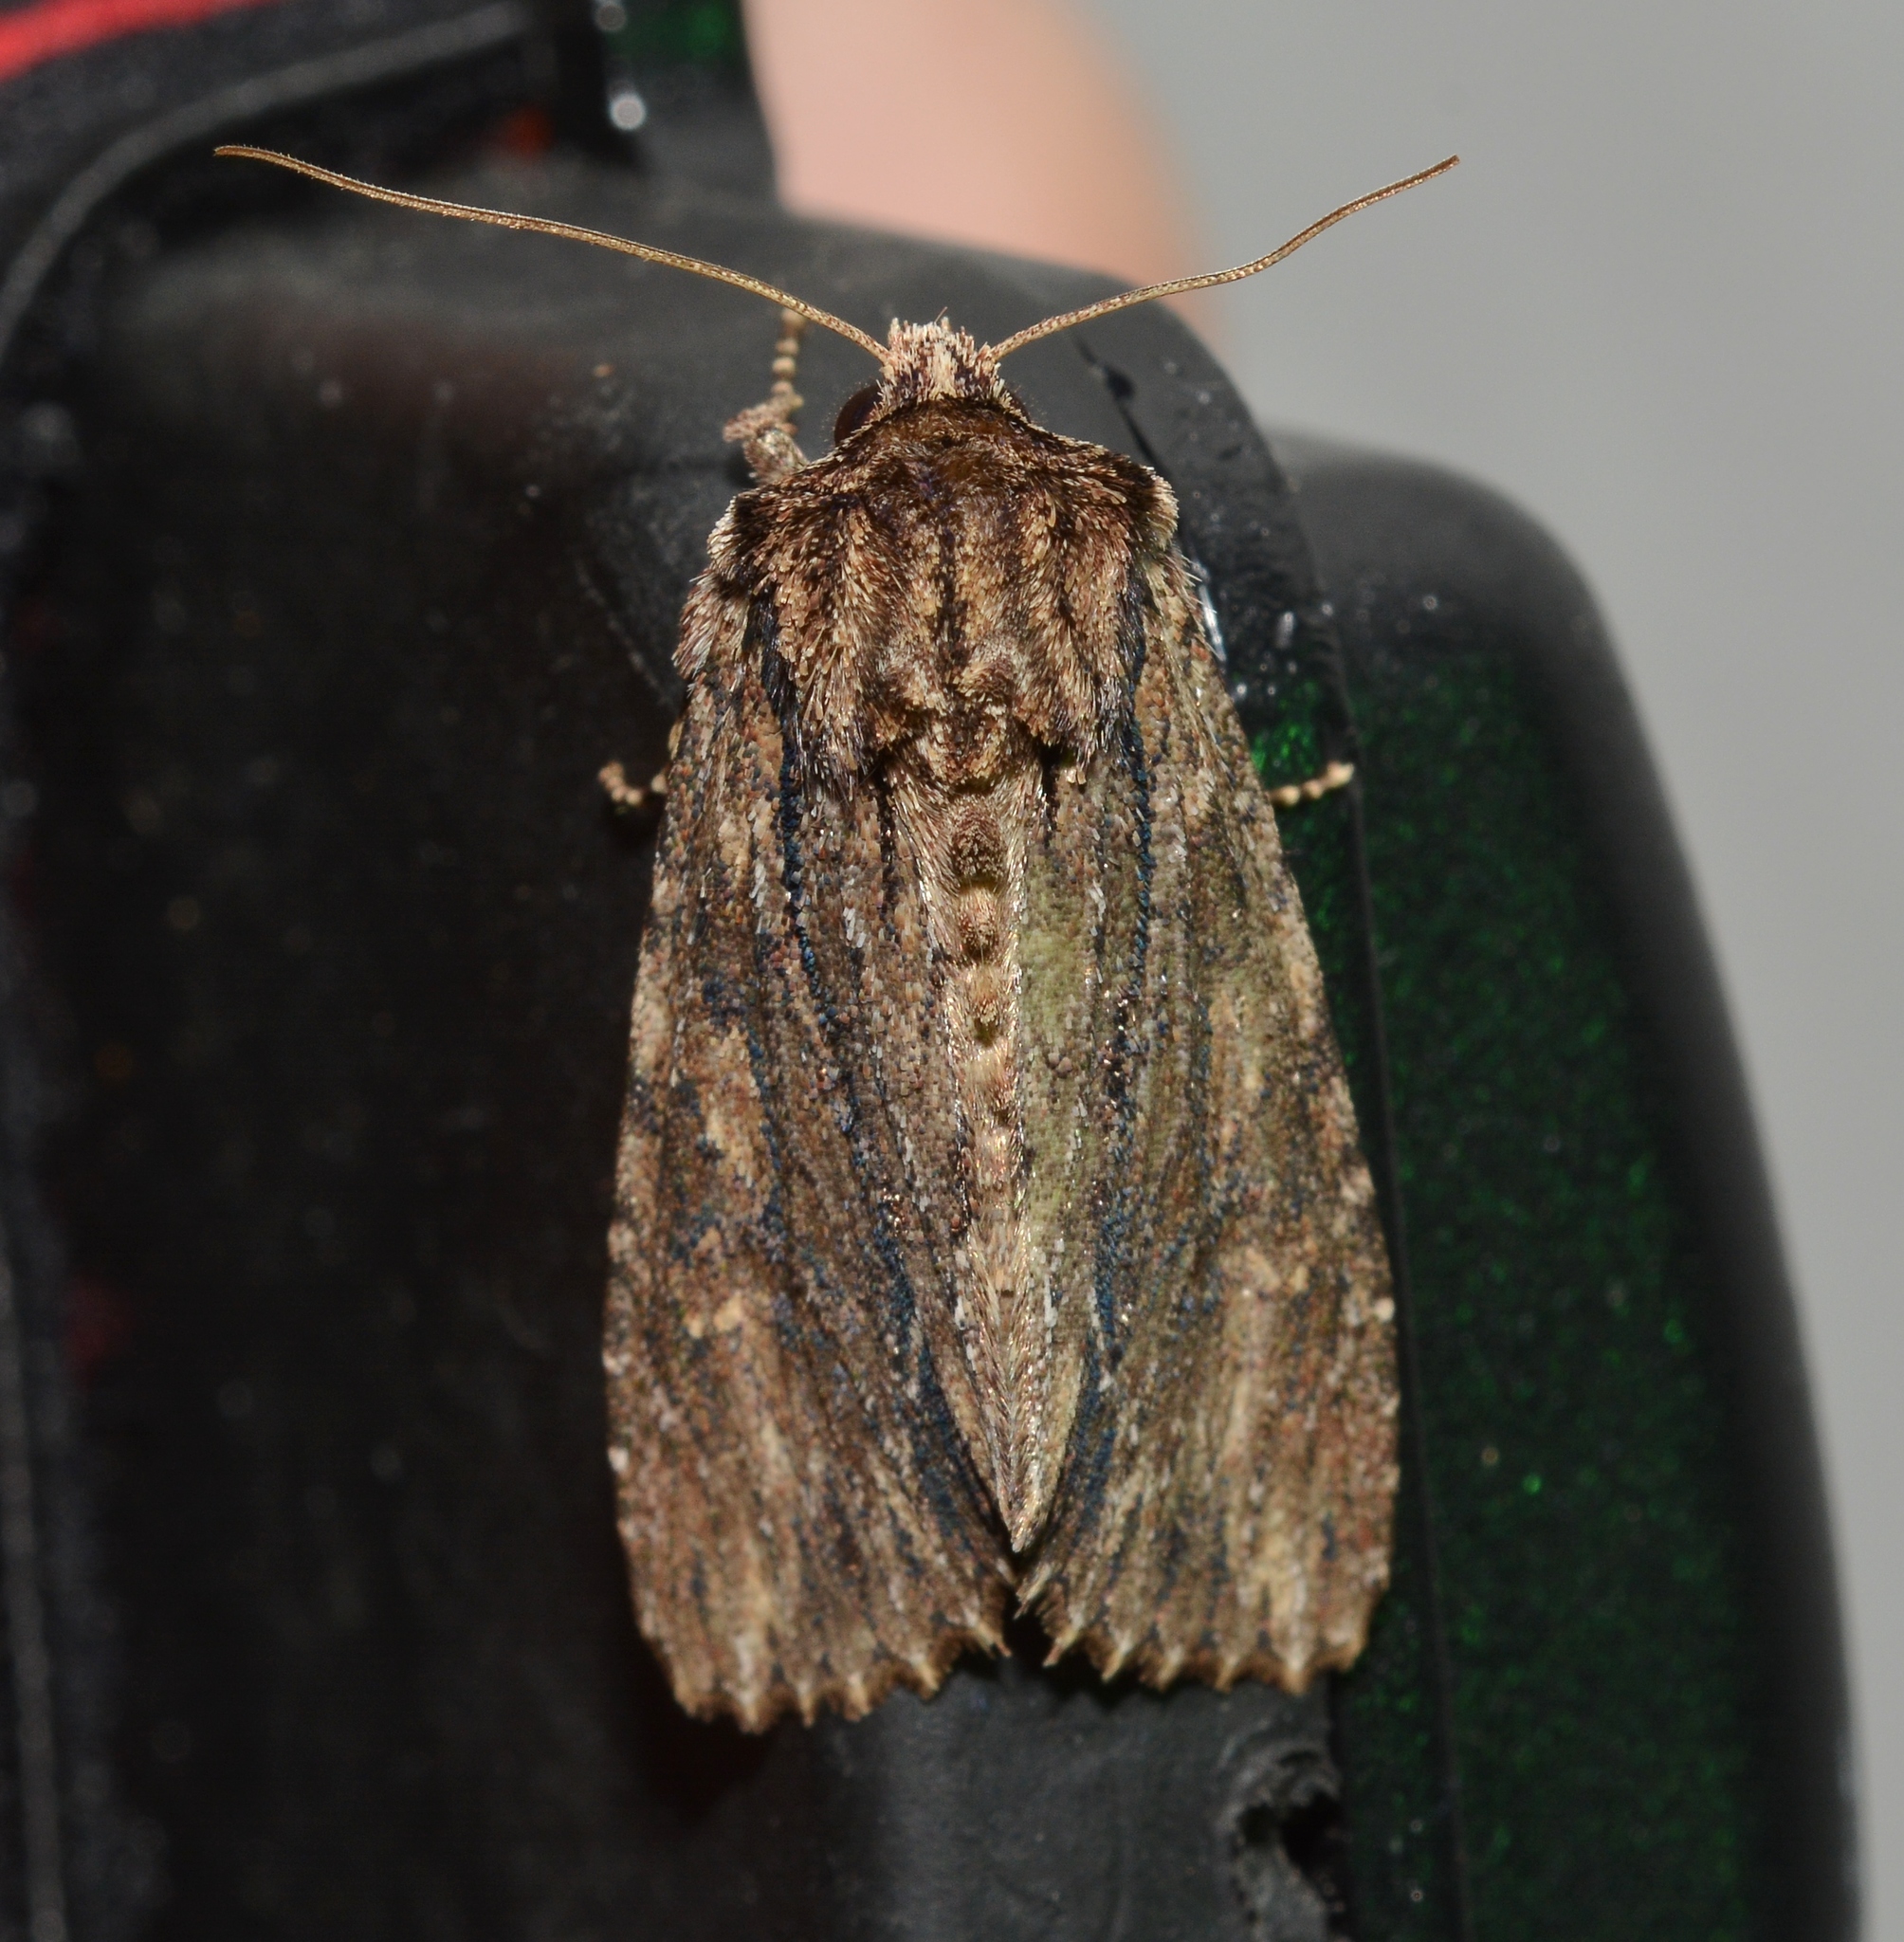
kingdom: Animalia
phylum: Arthropoda
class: Insecta
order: Lepidoptera
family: Noctuidae
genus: Achatia
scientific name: Achatia confusa
